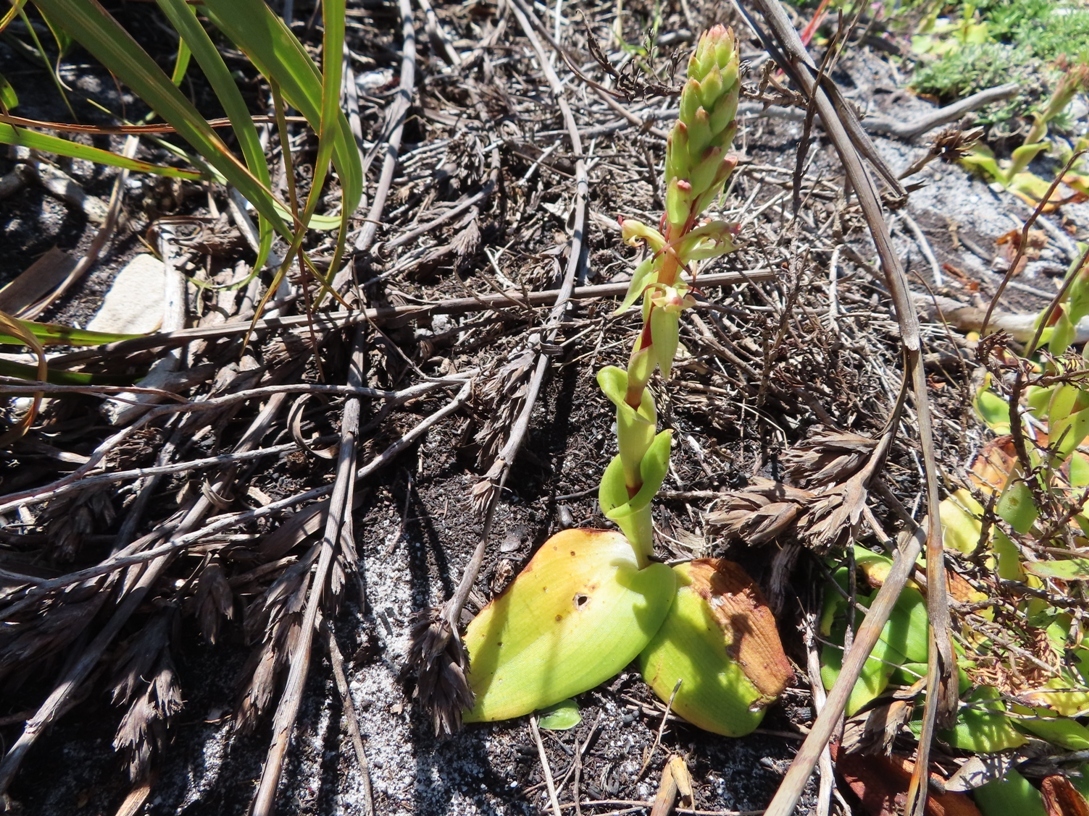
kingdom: Plantae
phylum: Tracheophyta
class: Liliopsida
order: Asparagales
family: Orchidaceae
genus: Satyrium
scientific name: Satyrium humile
